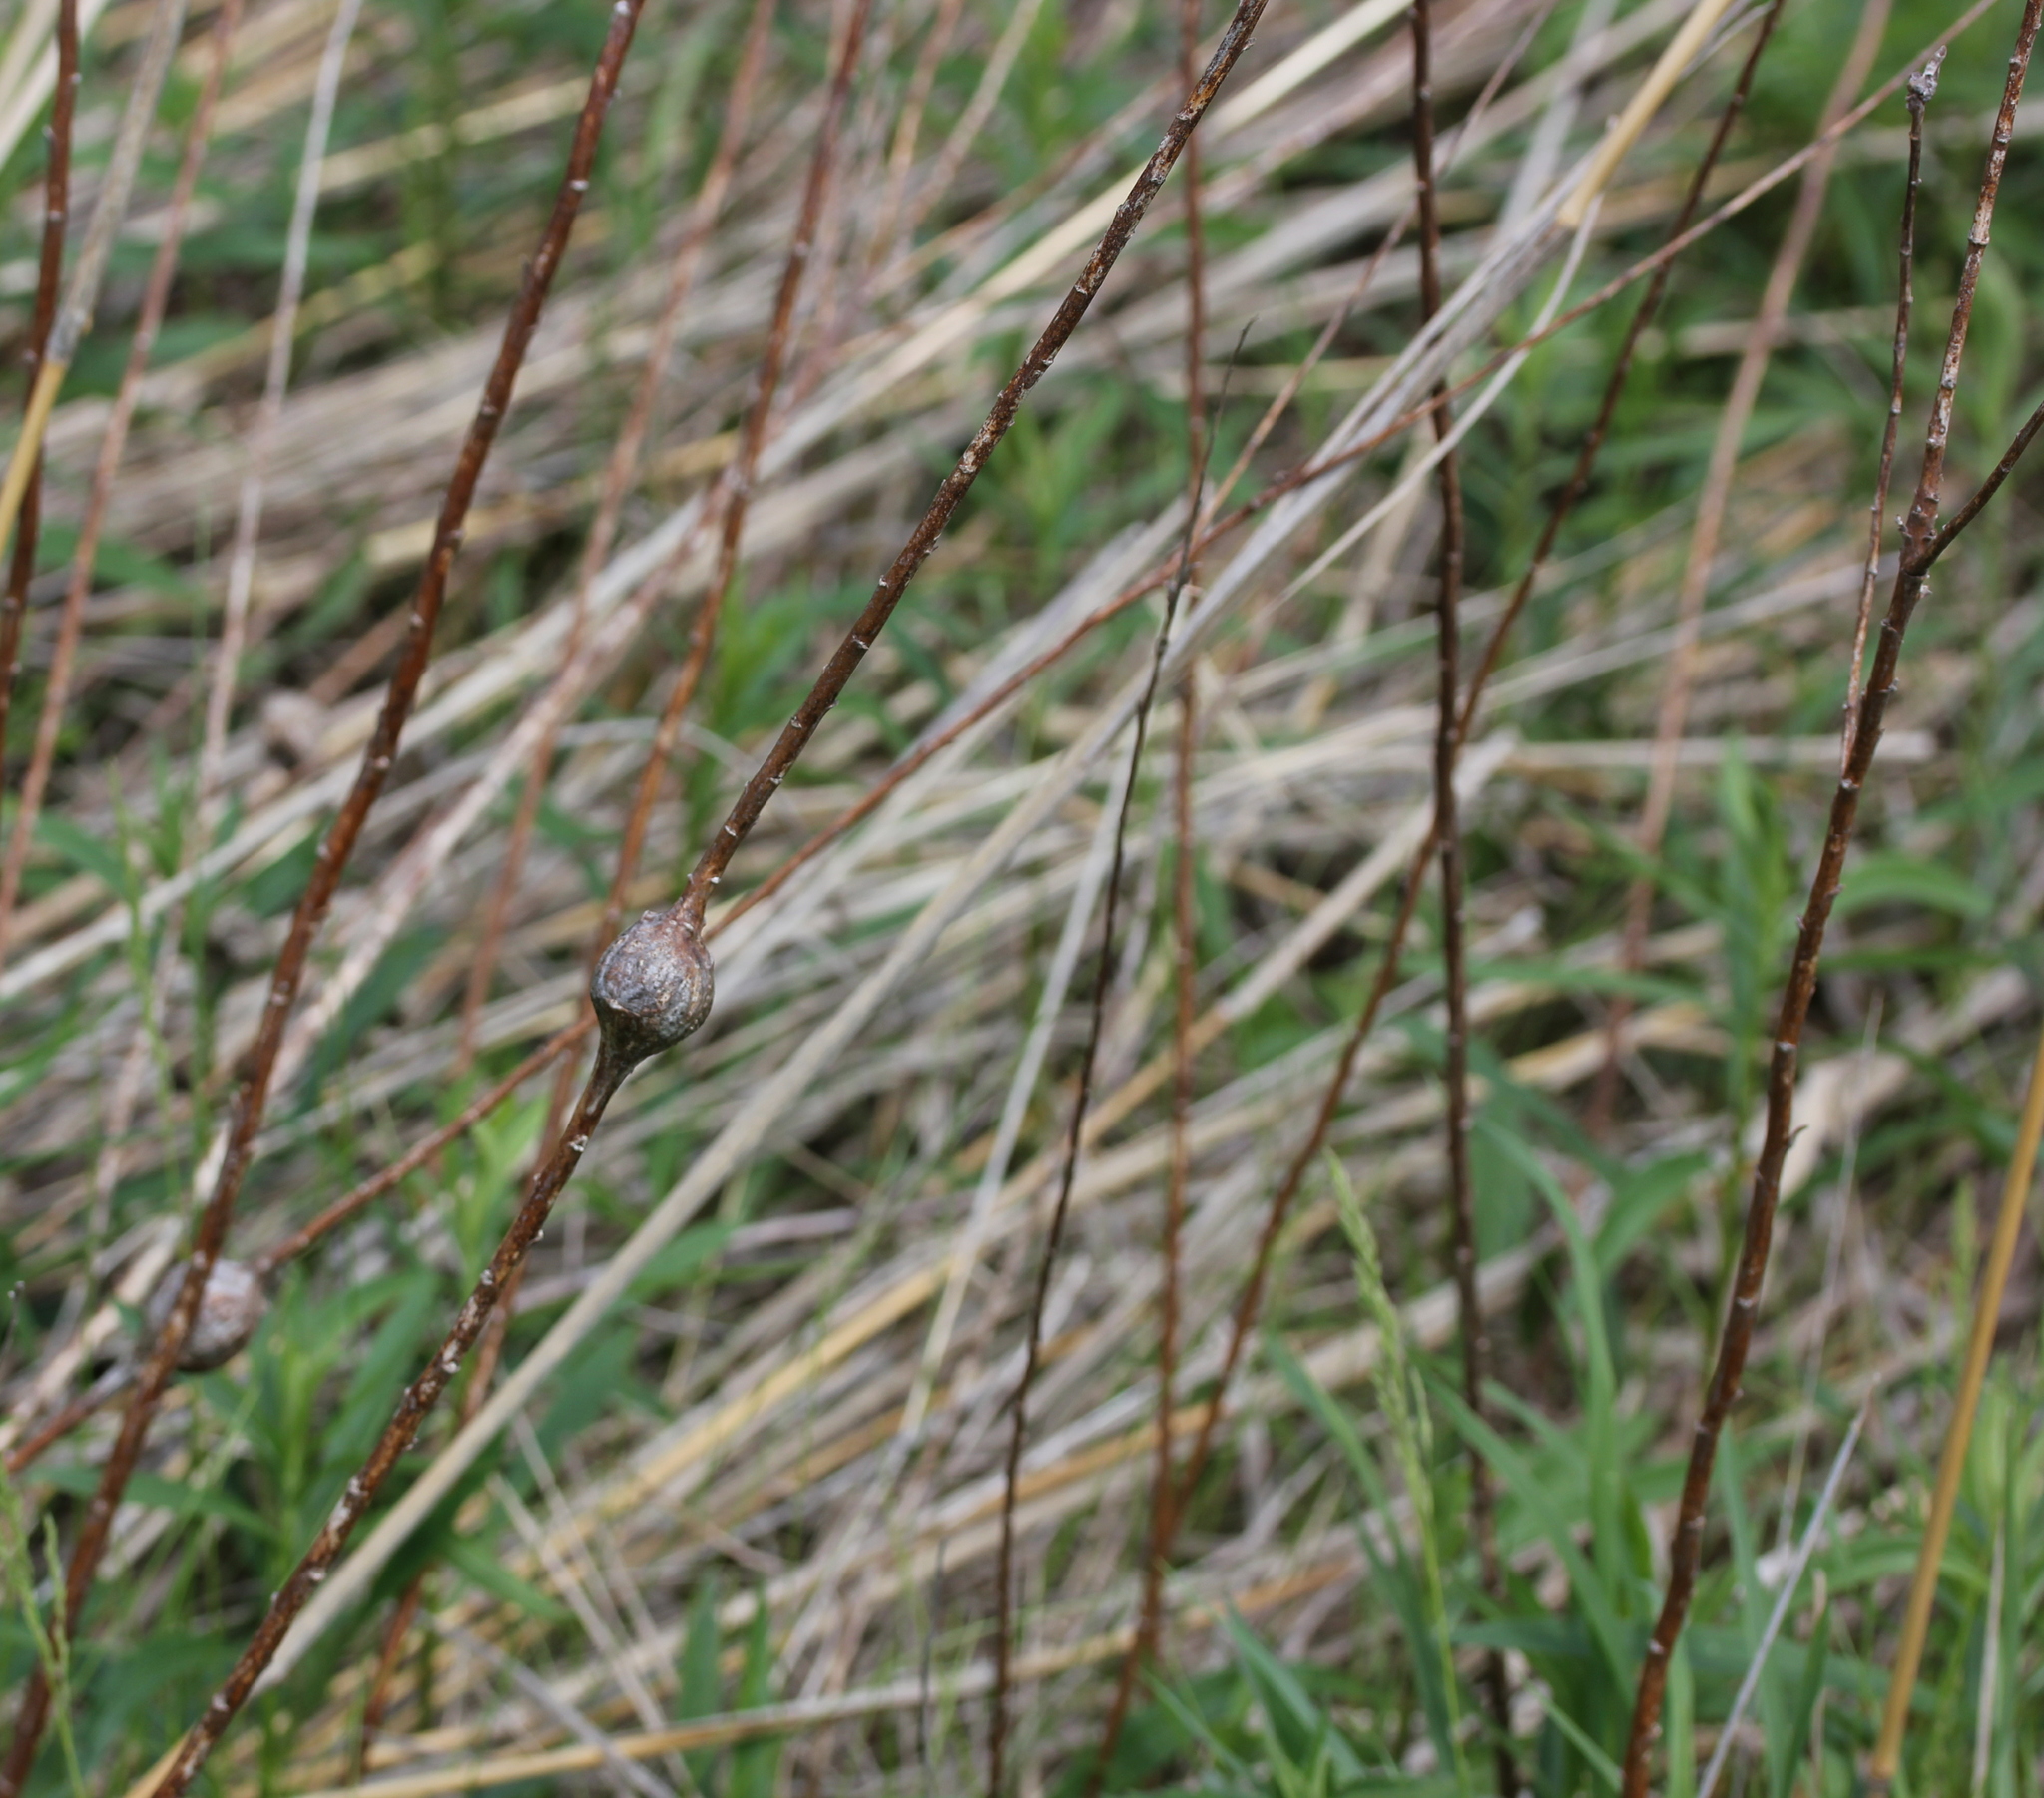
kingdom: Animalia
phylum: Arthropoda
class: Insecta
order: Diptera
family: Tephritidae
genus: Eurosta
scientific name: Eurosta solidaginis
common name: Goldenrod gall fly
